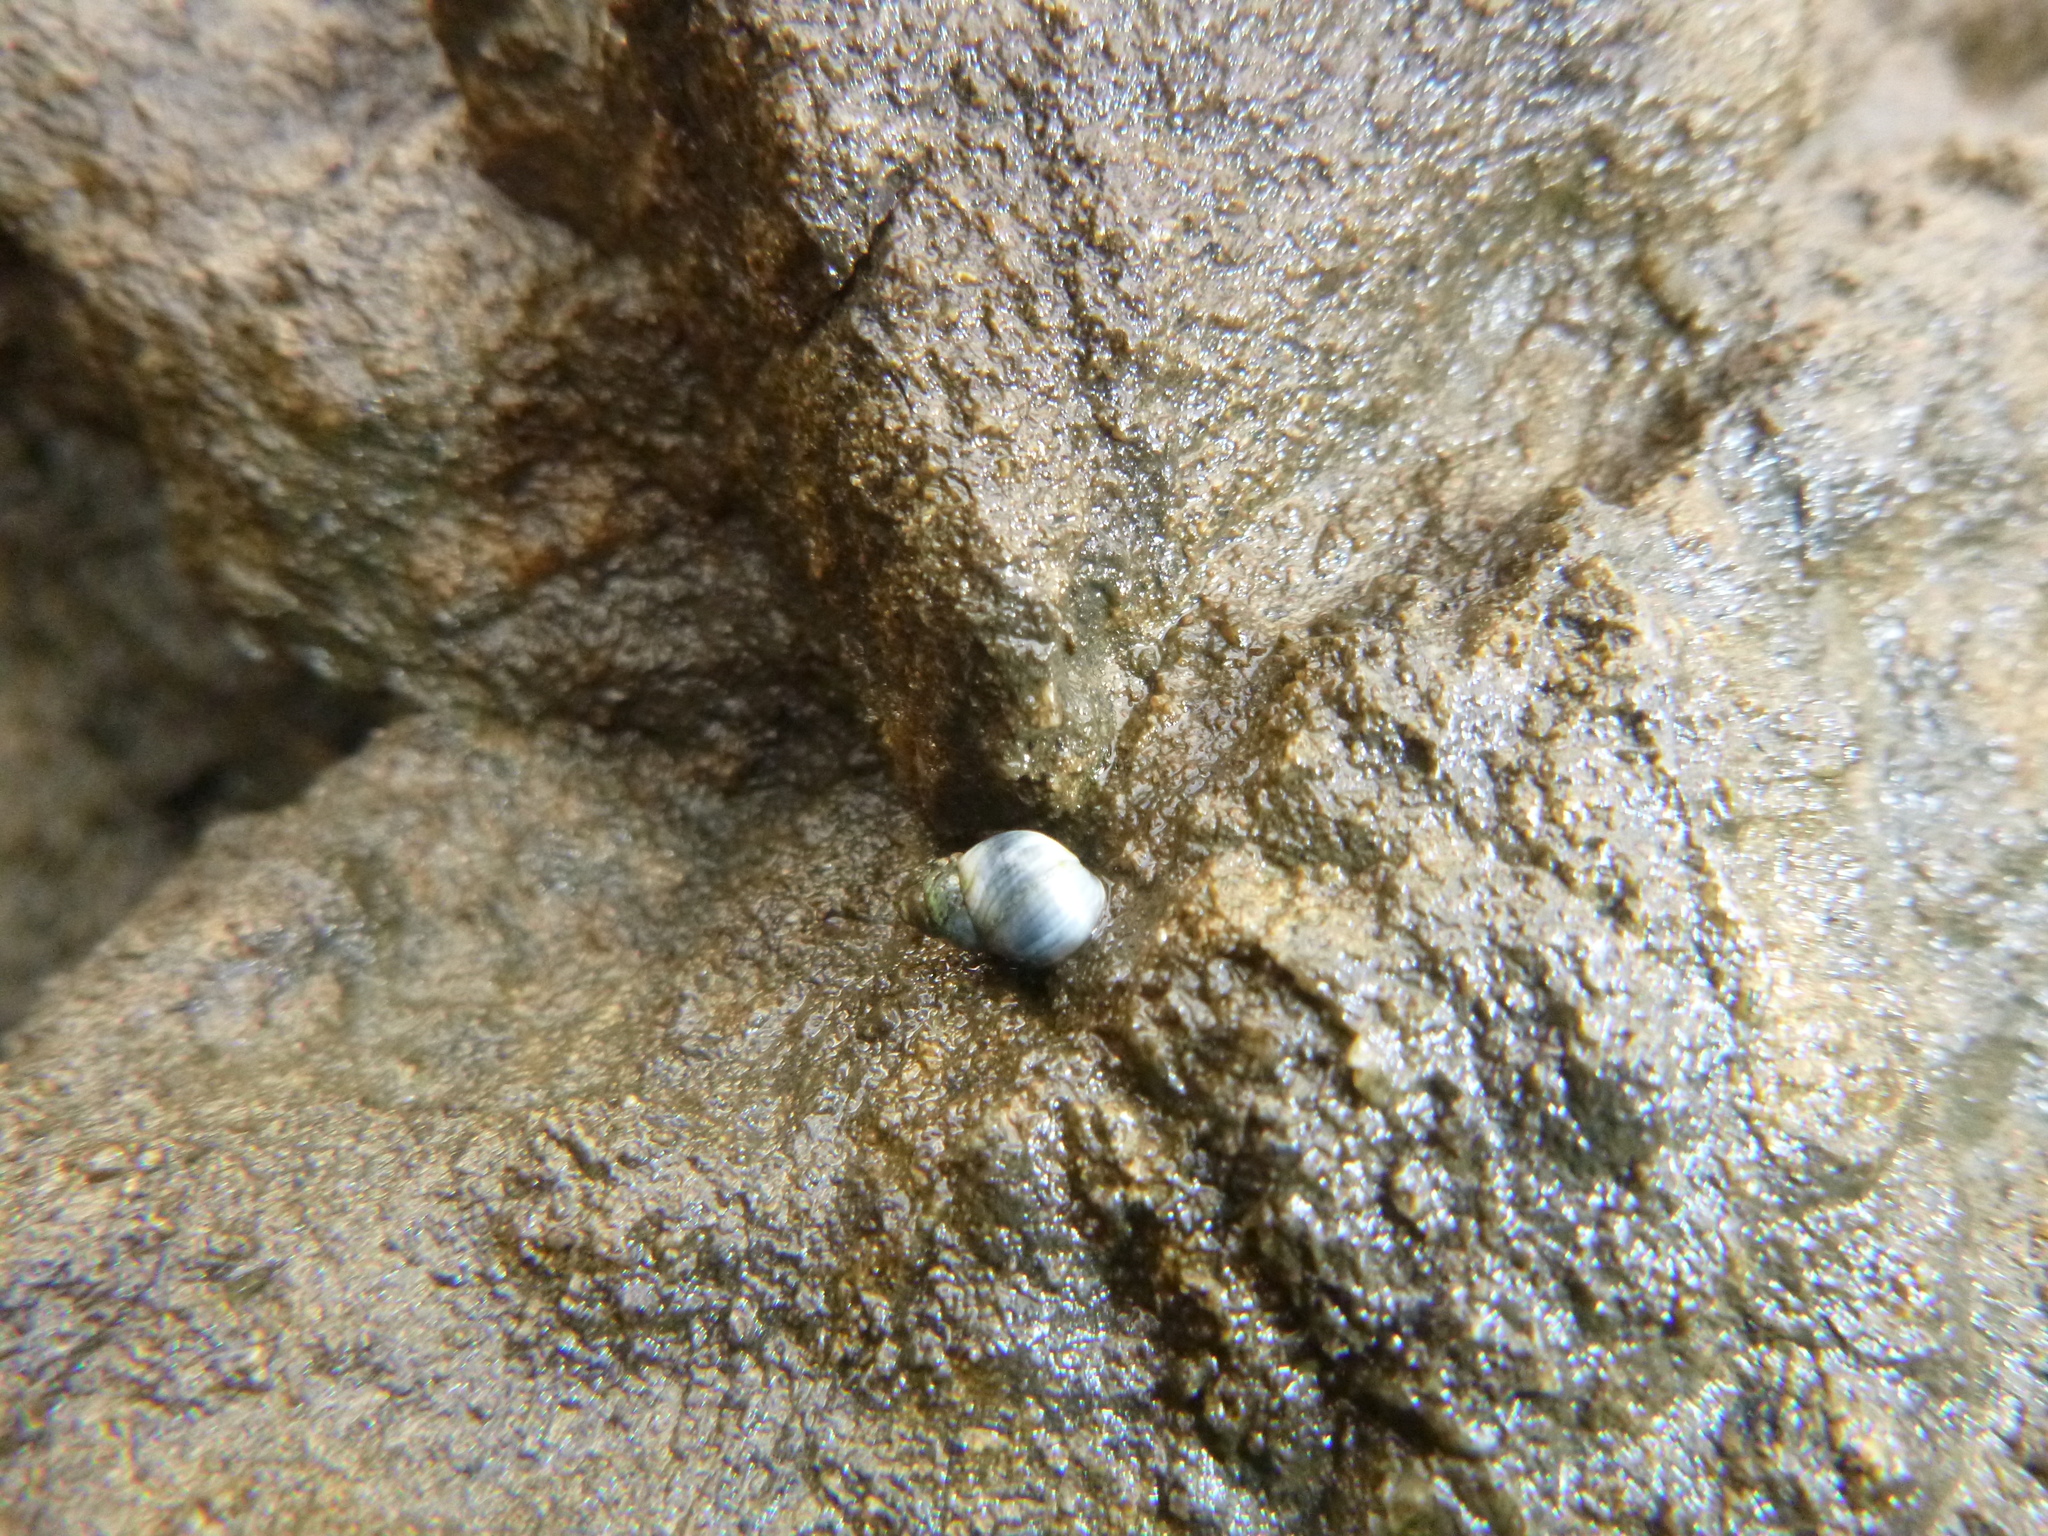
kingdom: Animalia
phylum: Mollusca
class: Gastropoda
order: Littorinimorpha
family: Littorinidae
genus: Austrolittorina
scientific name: Austrolittorina antipodum
